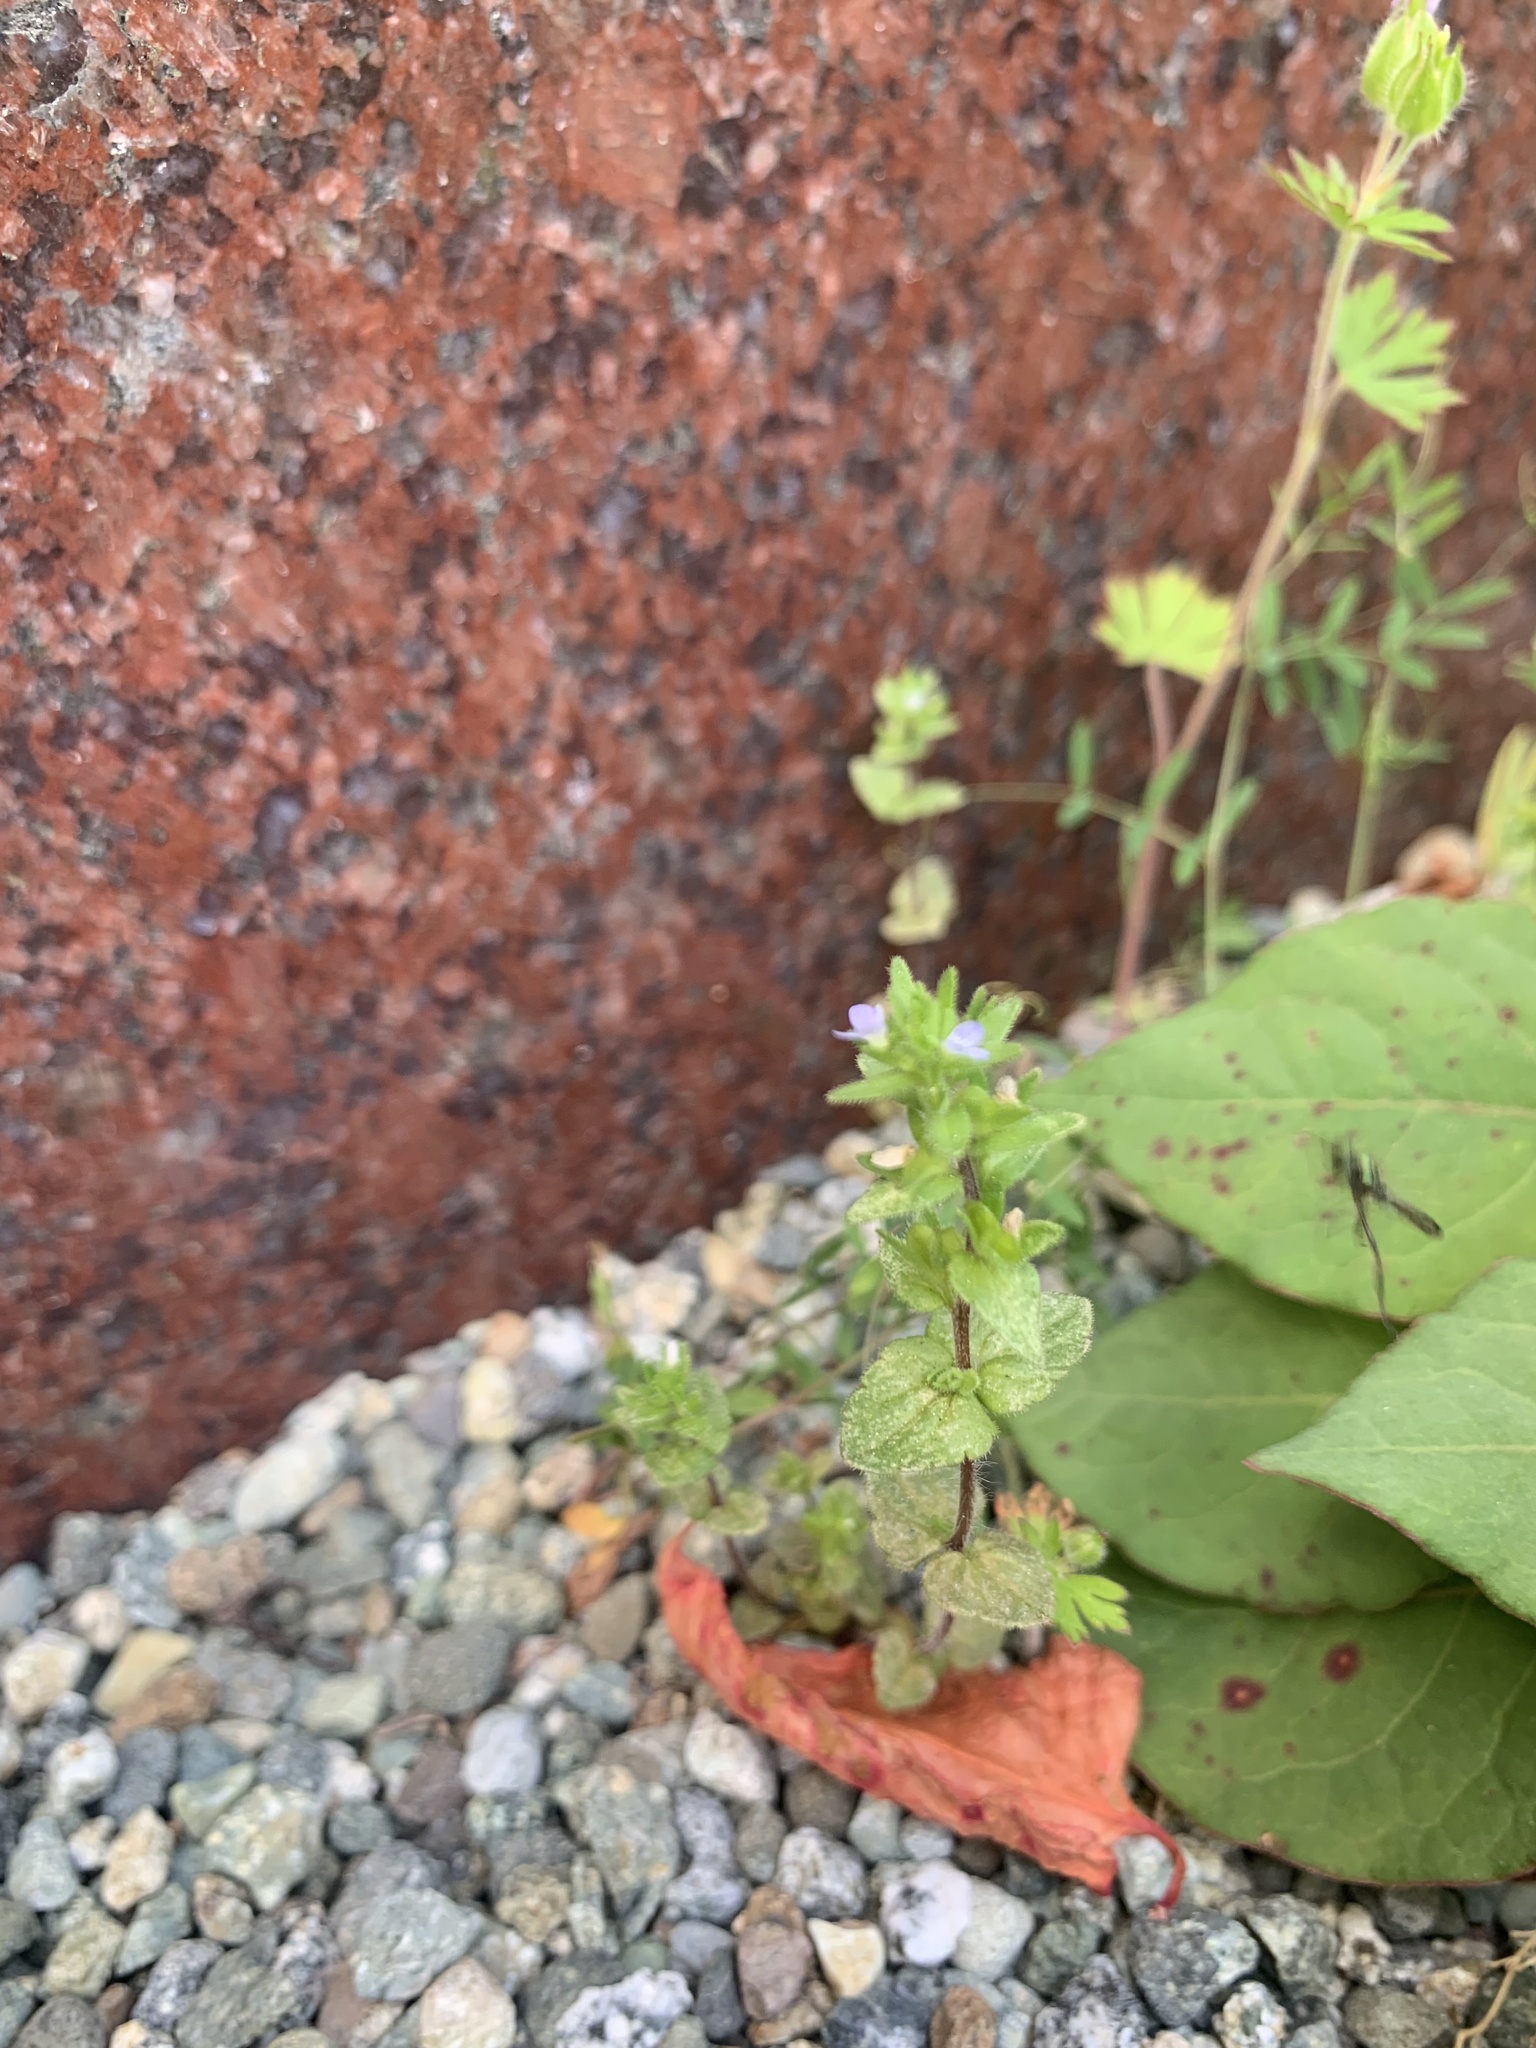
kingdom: Plantae
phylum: Tracheophyta
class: Magnoliopsida
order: Lamiales
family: Plantaginaceae
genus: Veronica
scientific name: Veronica arvensis
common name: Corn speedwell
